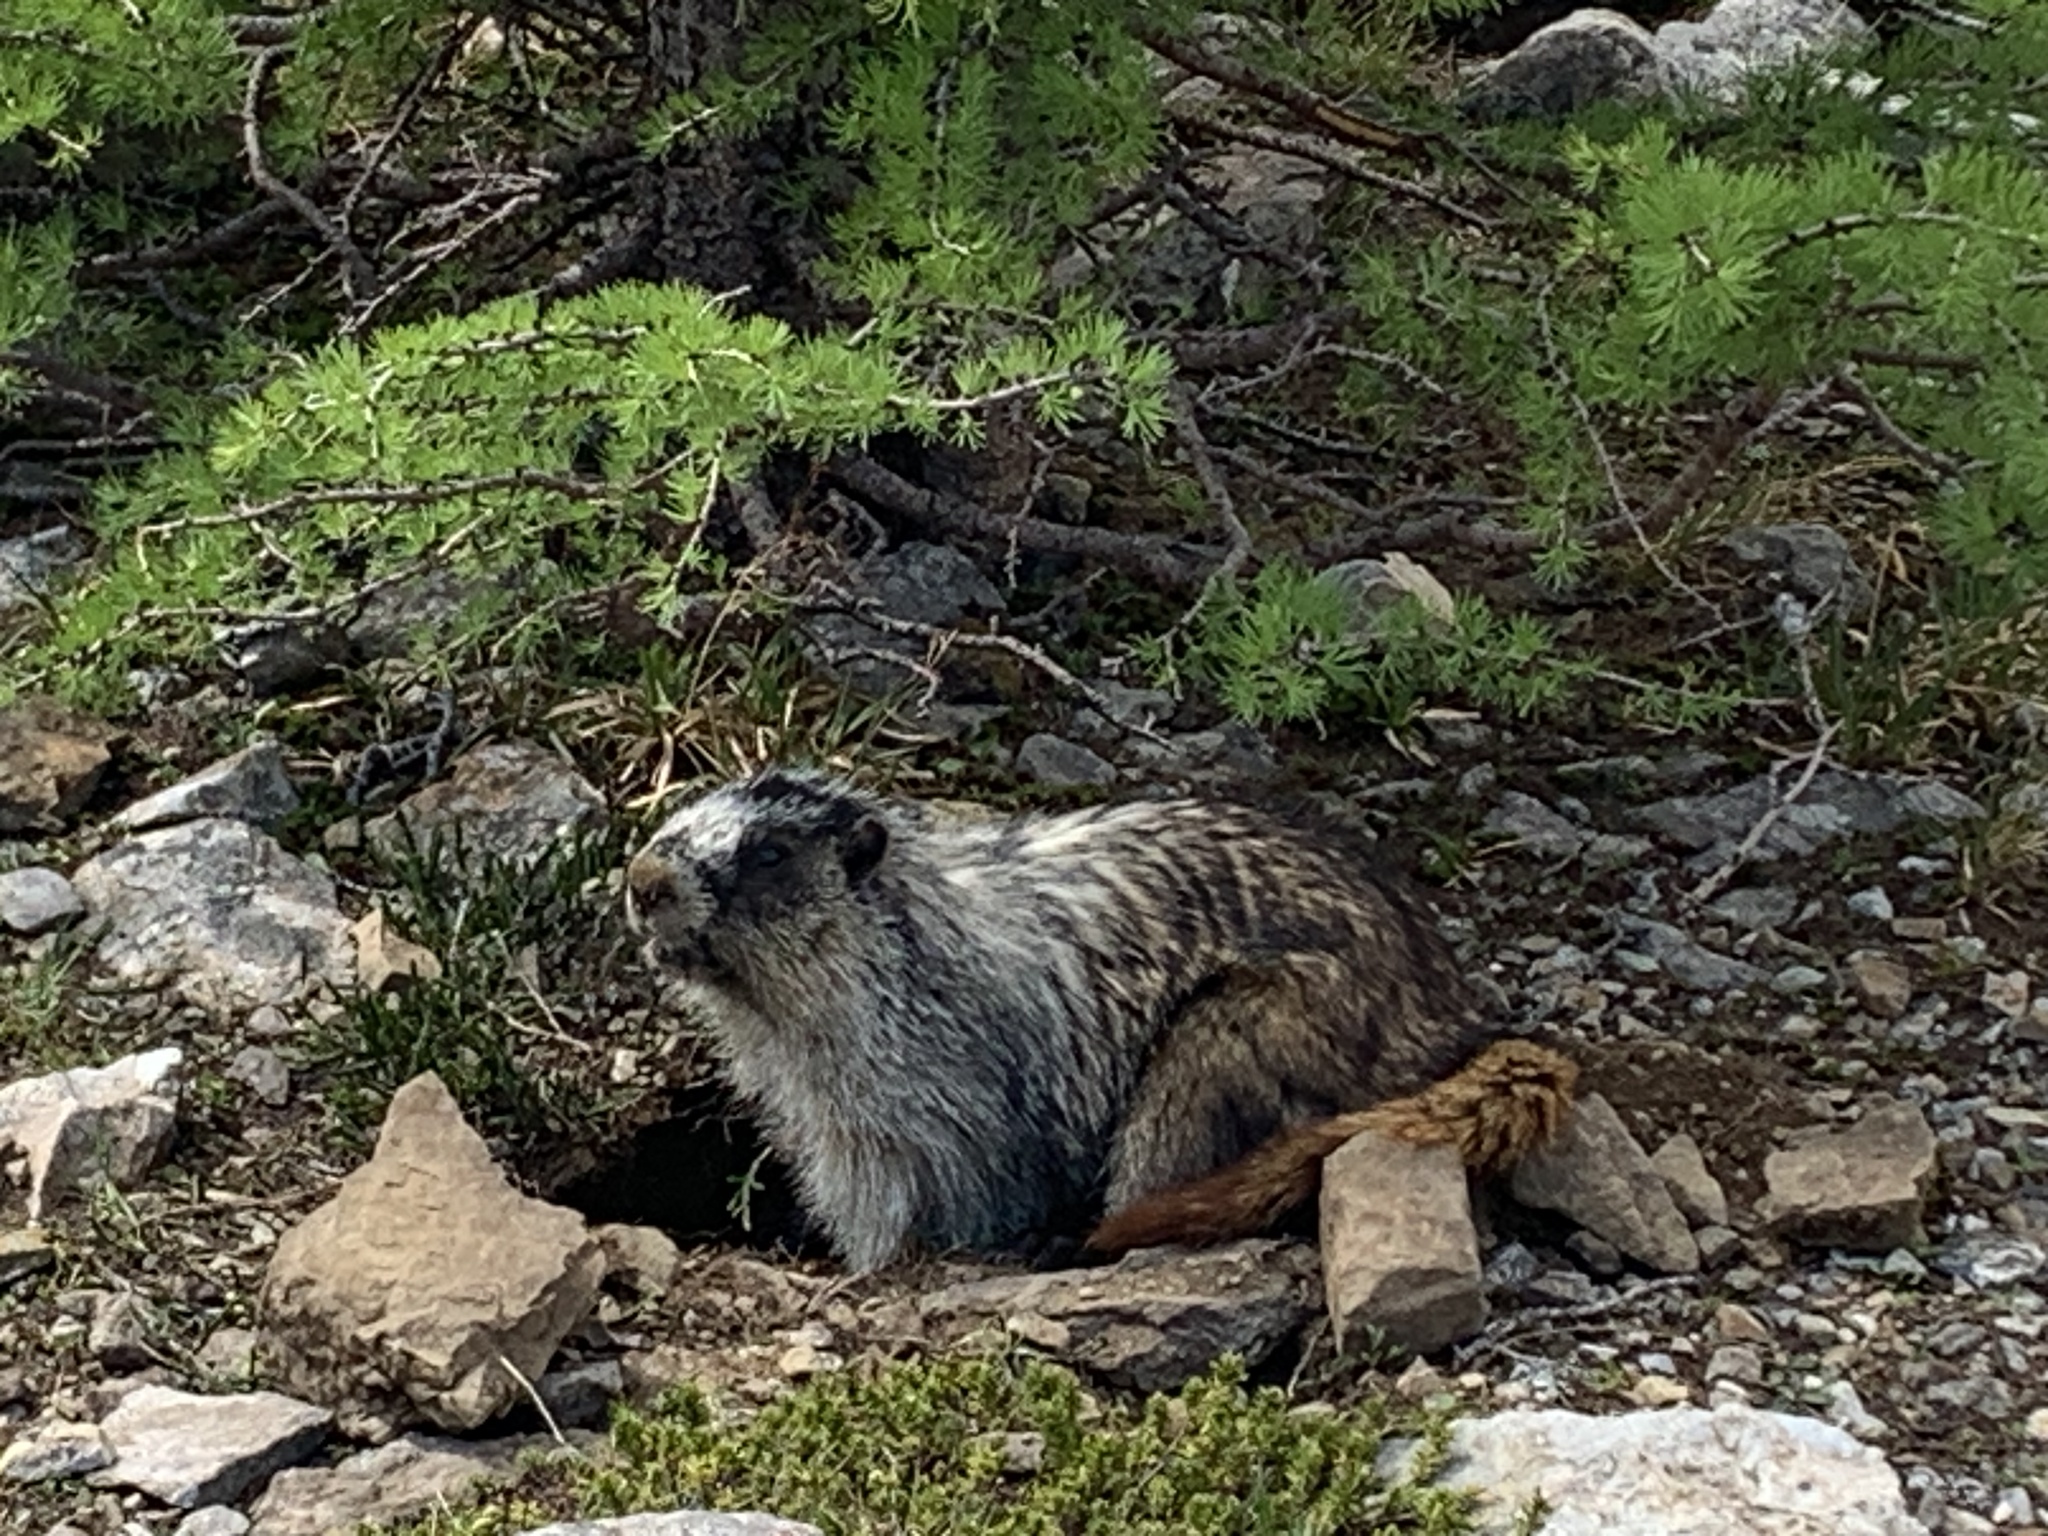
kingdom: Animalia
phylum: Chordata
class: Mammalia
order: Rodentia
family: Sciuridae
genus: Marmota
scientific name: Marmota caligata
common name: Hoary marmot
